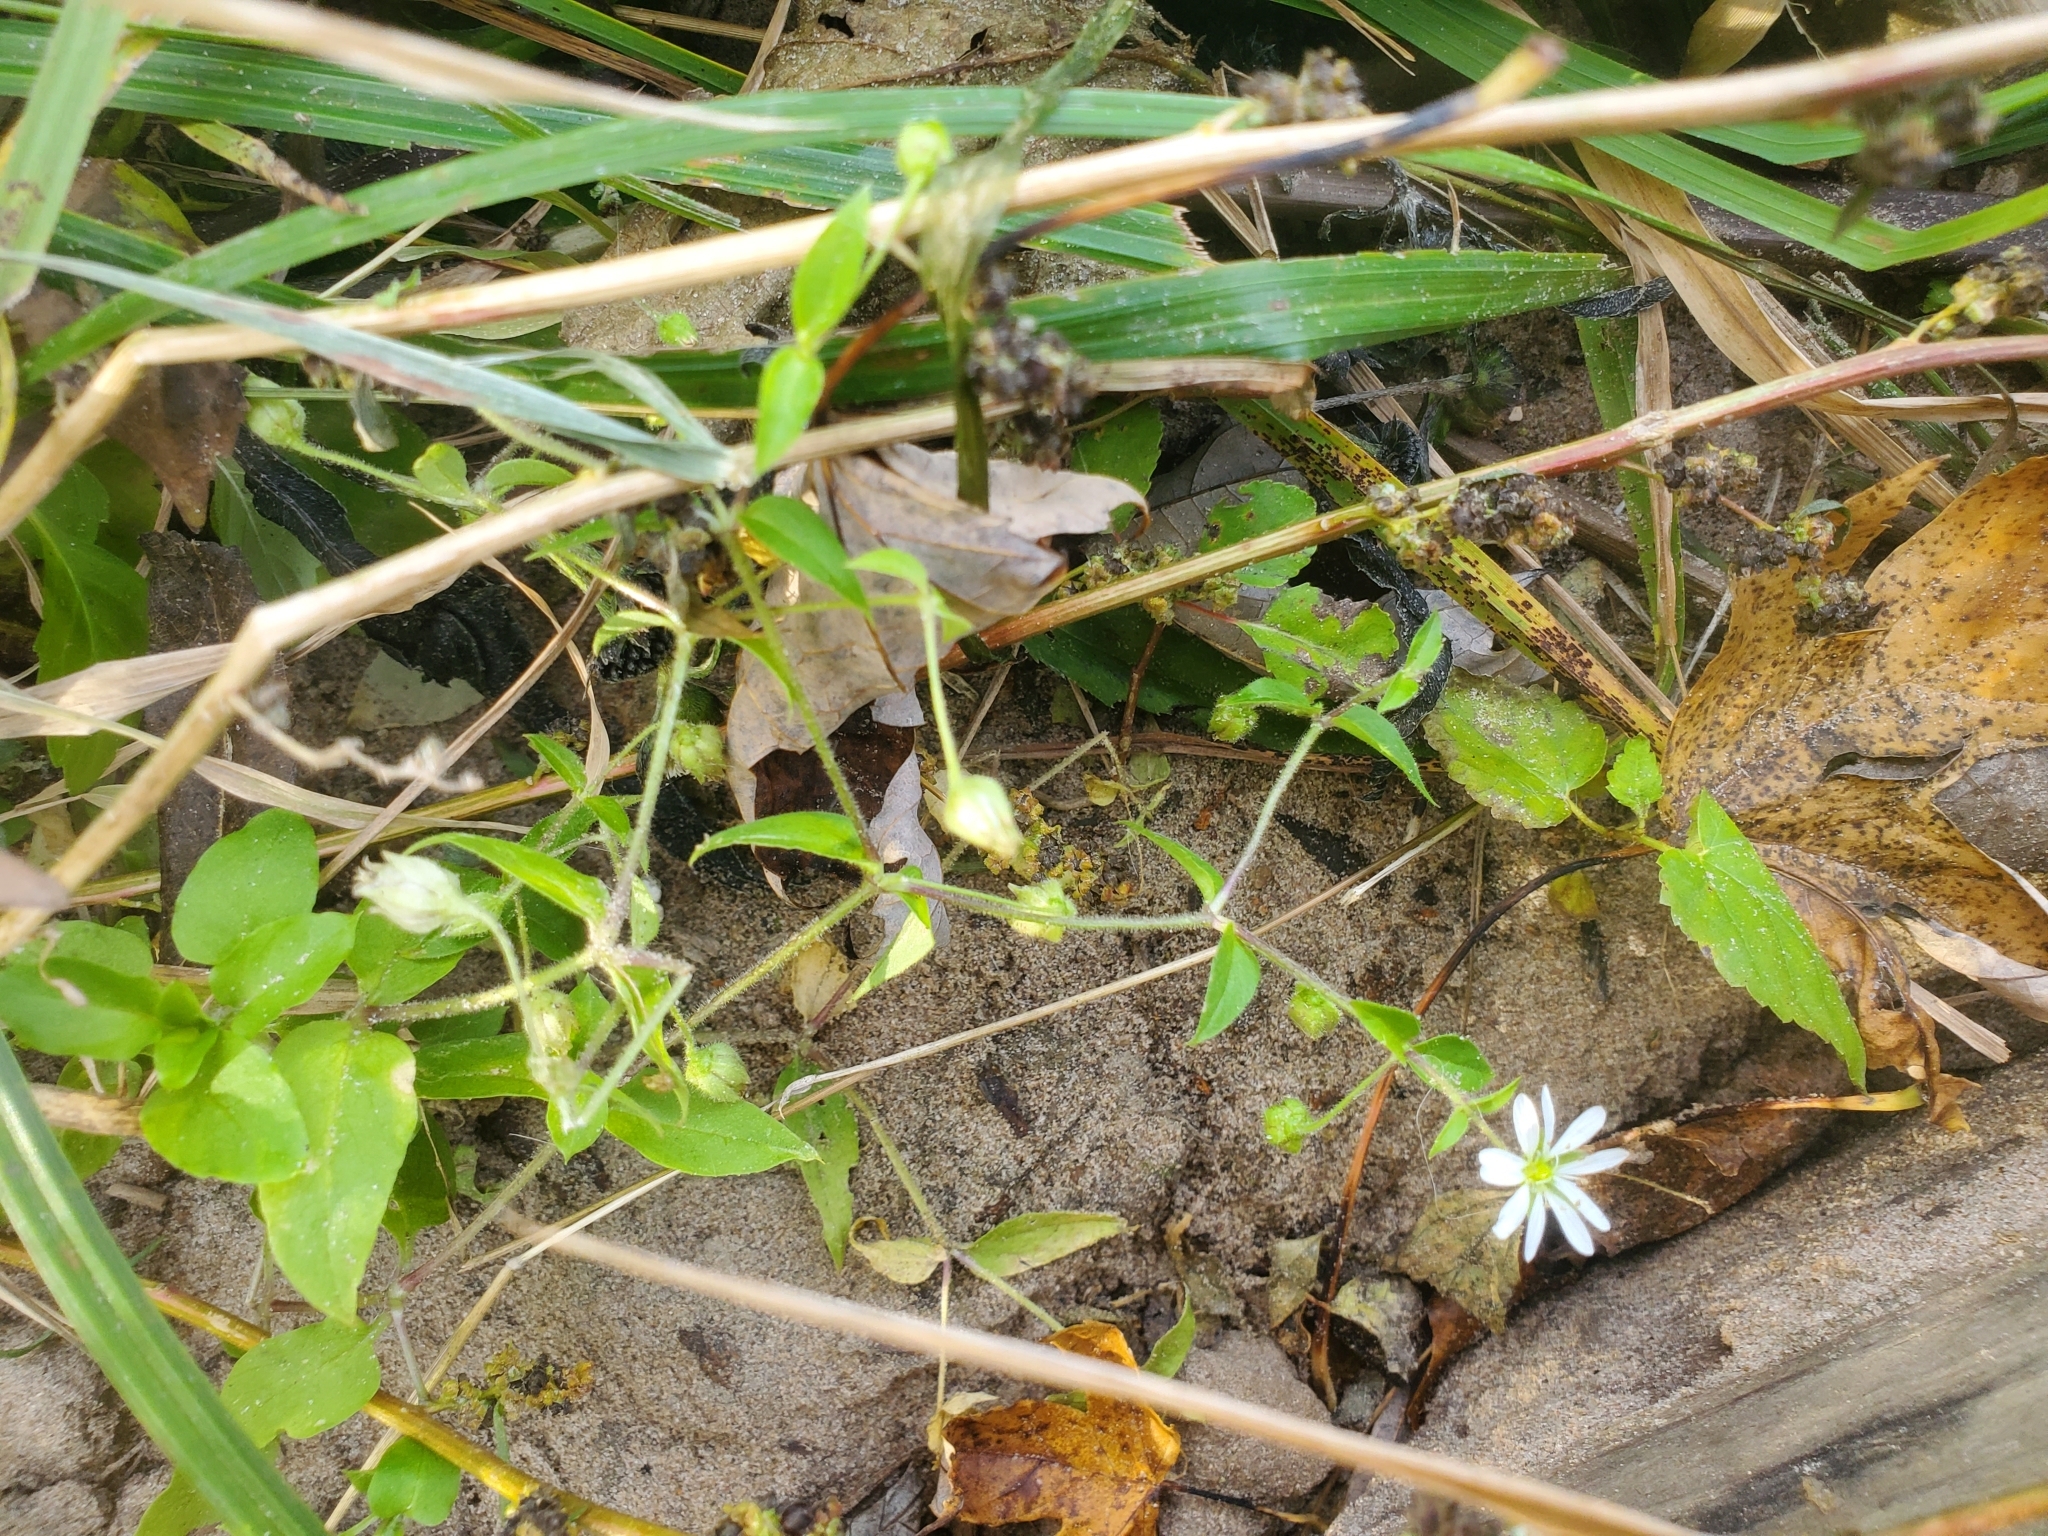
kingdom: Plantae
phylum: Tracheophyta
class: Magnoliopsida
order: Caryophyllales
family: Caryophyllaceae
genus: Stellaria
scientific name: Stellaria aquatica
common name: Water chickweed
